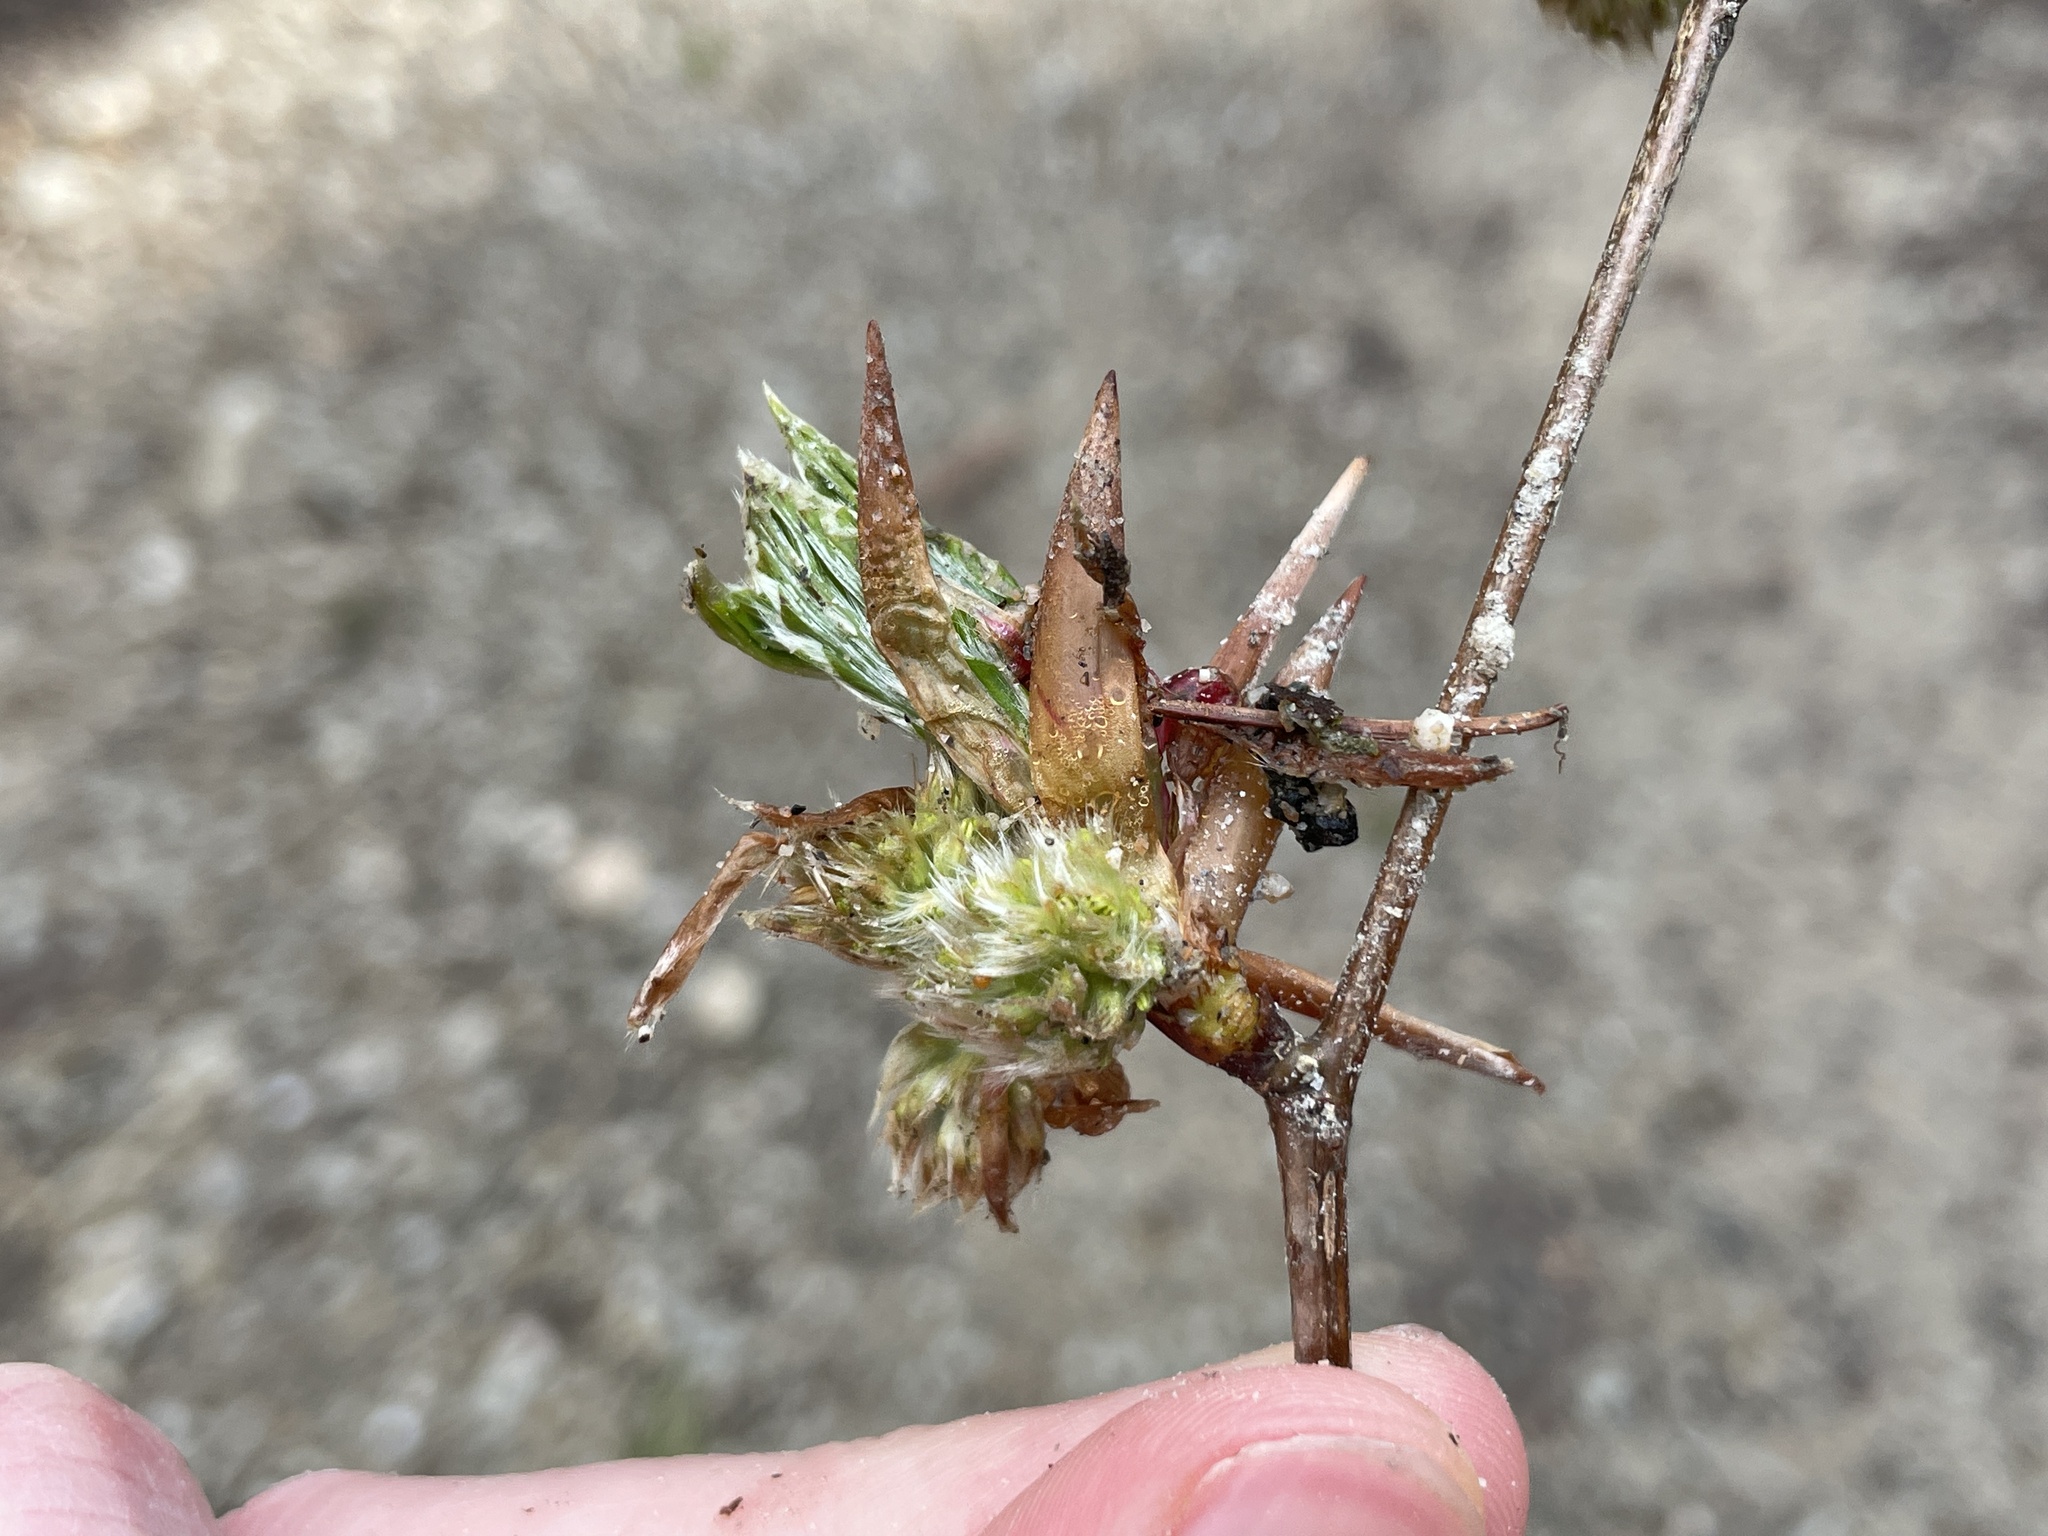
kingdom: Plantae
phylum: Tracheophyta
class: Magnoliopsida
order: Fagales
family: Fagaceae
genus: Fagus
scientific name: Fagus sylvatica
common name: Beech
